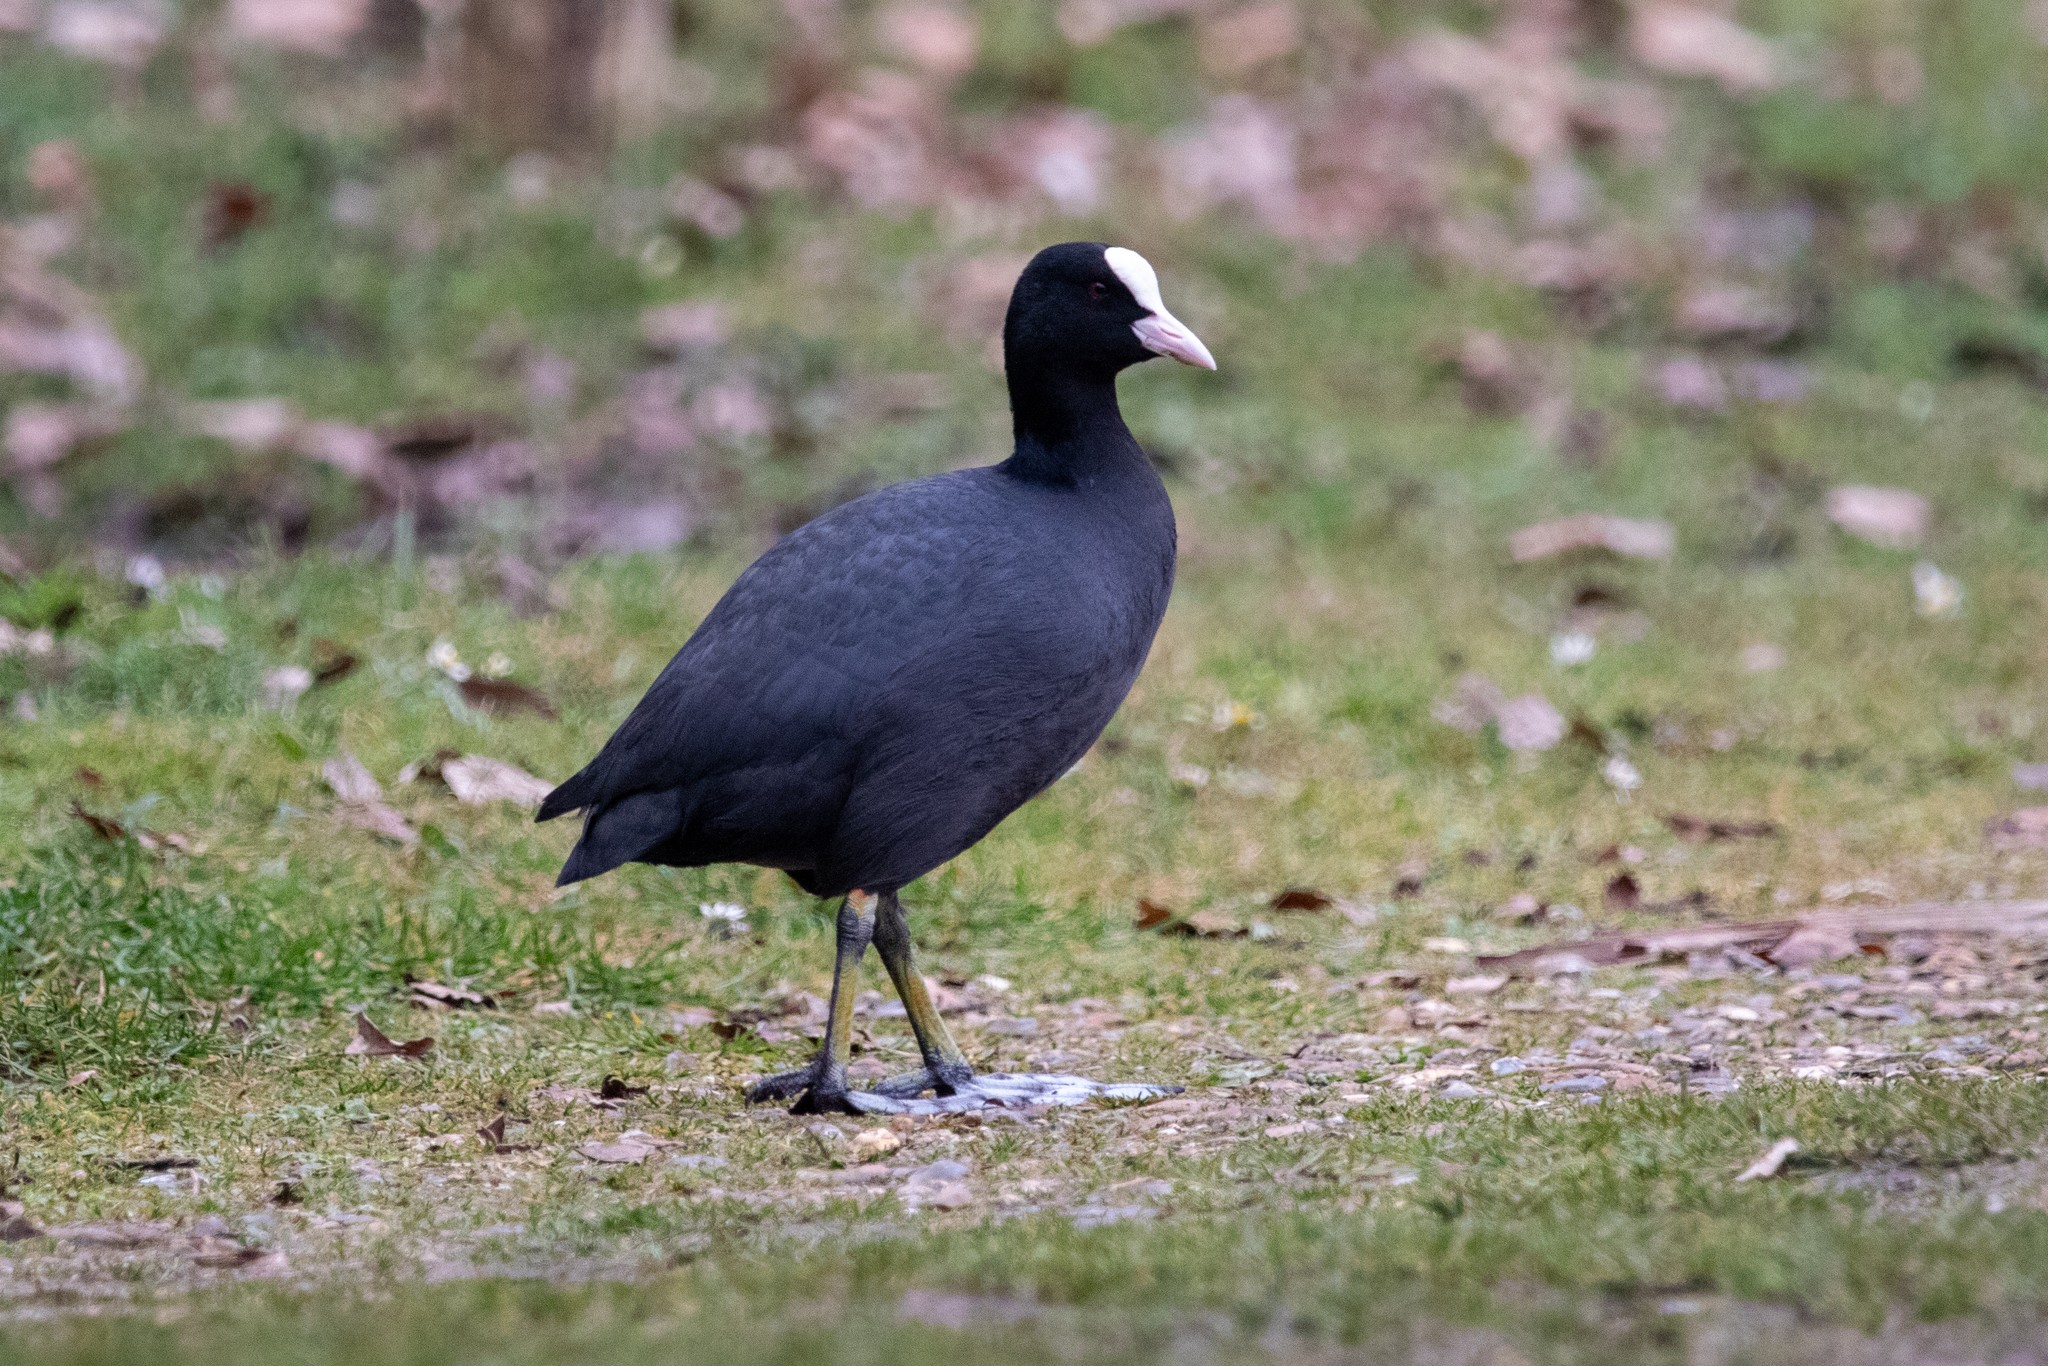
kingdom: Animalia
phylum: Chordata
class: Aves
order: Gruiformes
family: Rallidae
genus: Fulica
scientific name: Fulica atra
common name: Eurasian coot
